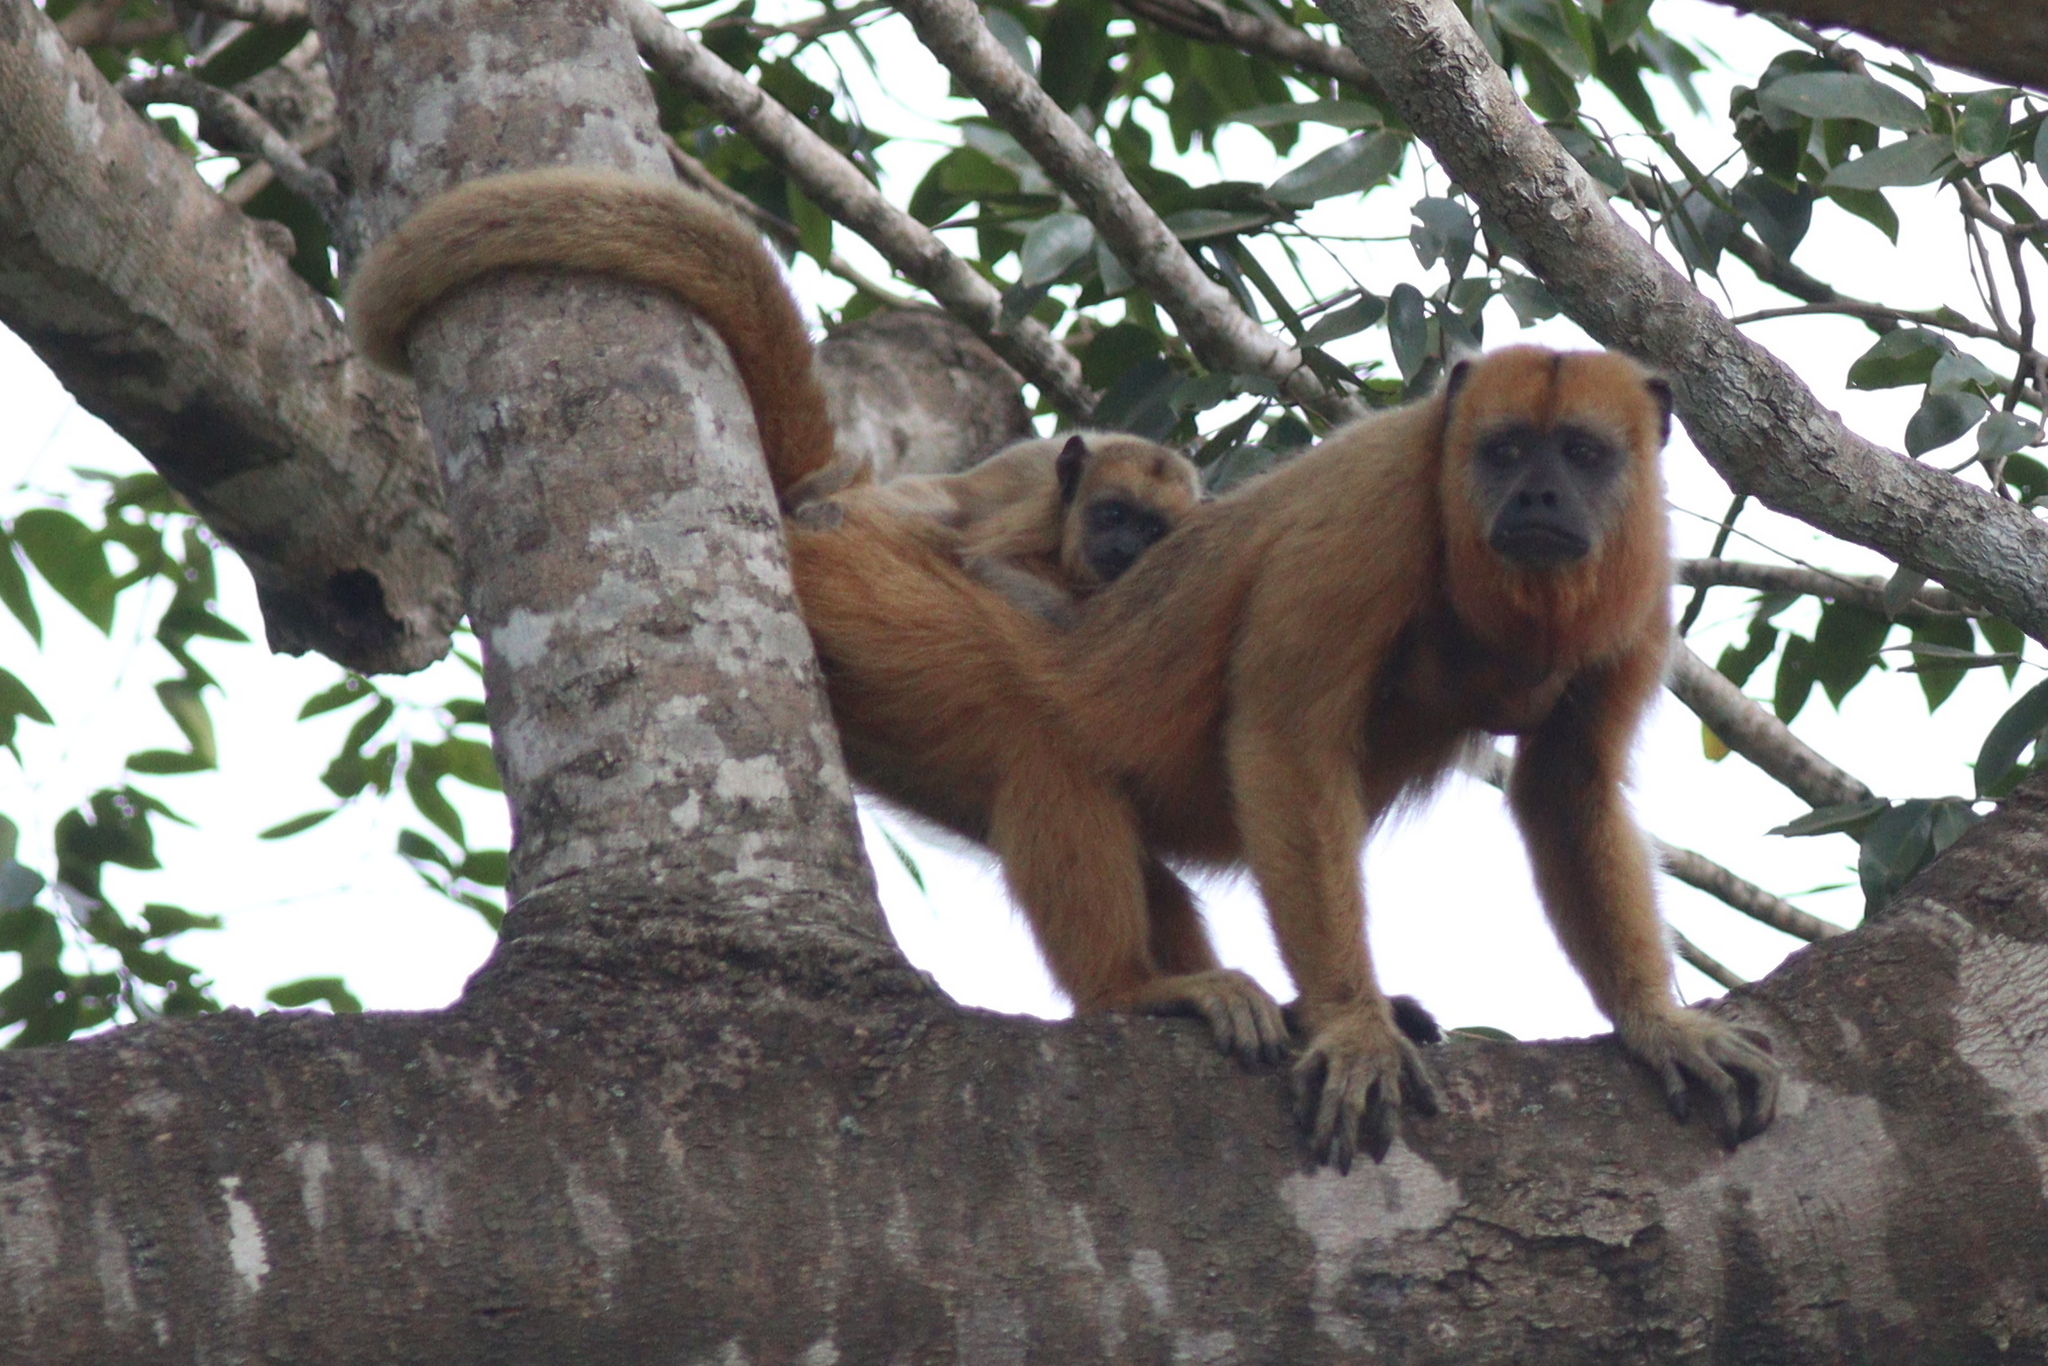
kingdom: Animalia
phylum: Chordata
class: Mammalia
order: Primates
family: Atelidae
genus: Alouatta
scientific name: Alouatta caraya
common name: Black howler
